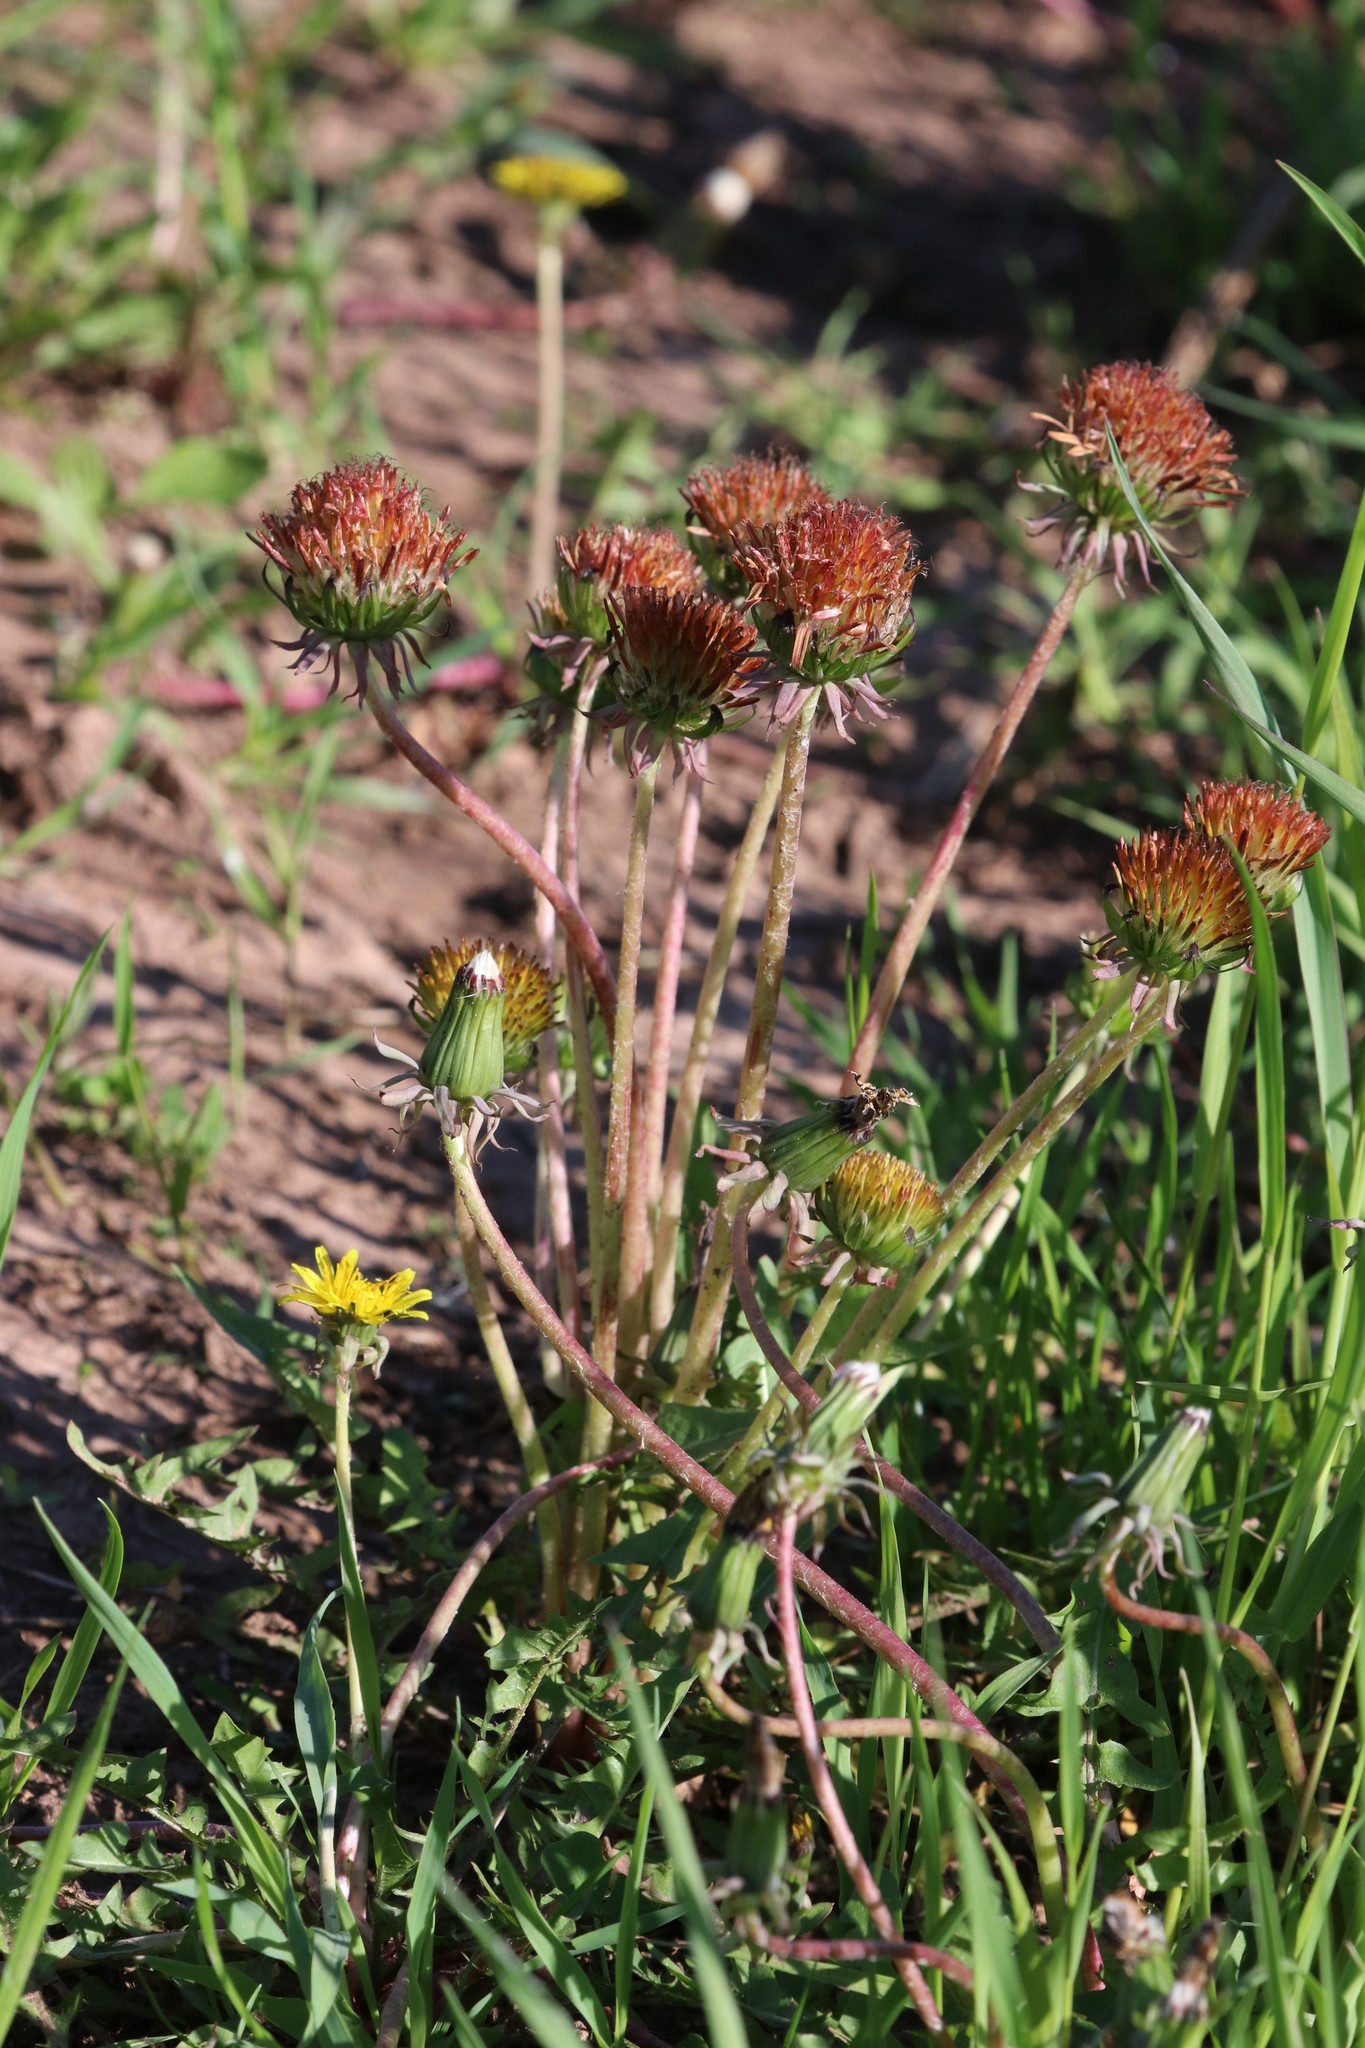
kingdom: Plantae
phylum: Tracheophyta
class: Magnoliopsida
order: Asterales
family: Asteraceae
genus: Taraxacum
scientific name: Taraxacum officinale
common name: Common dandelion
